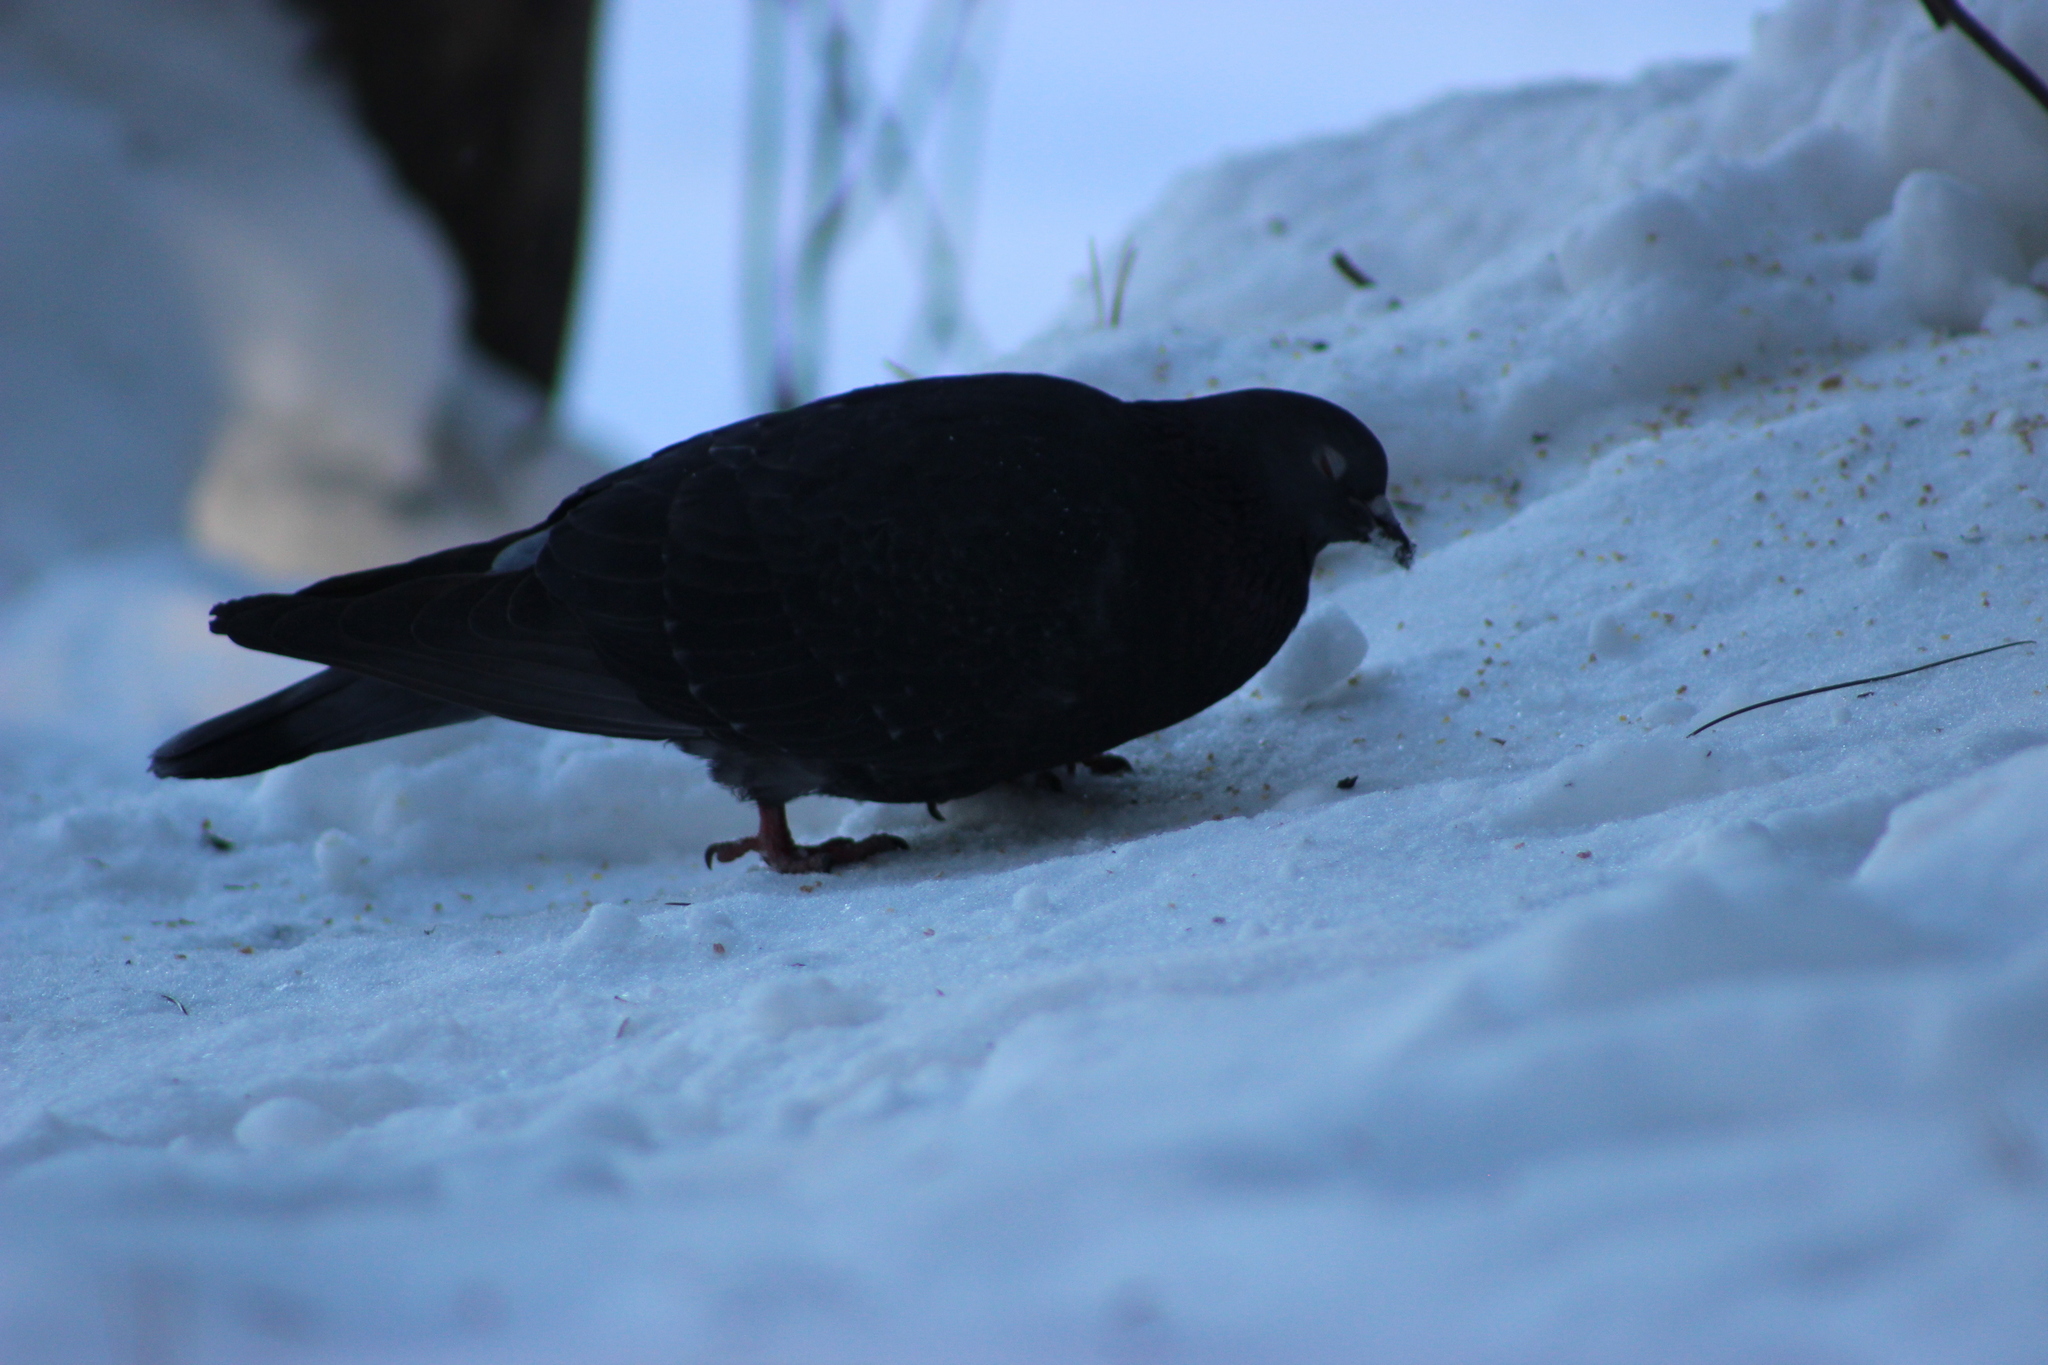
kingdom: Animalia
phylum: Chordata
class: Aves
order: Columbiformes
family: Columbidae
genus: Columba
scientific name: Columba livia
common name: Rock pigeon
